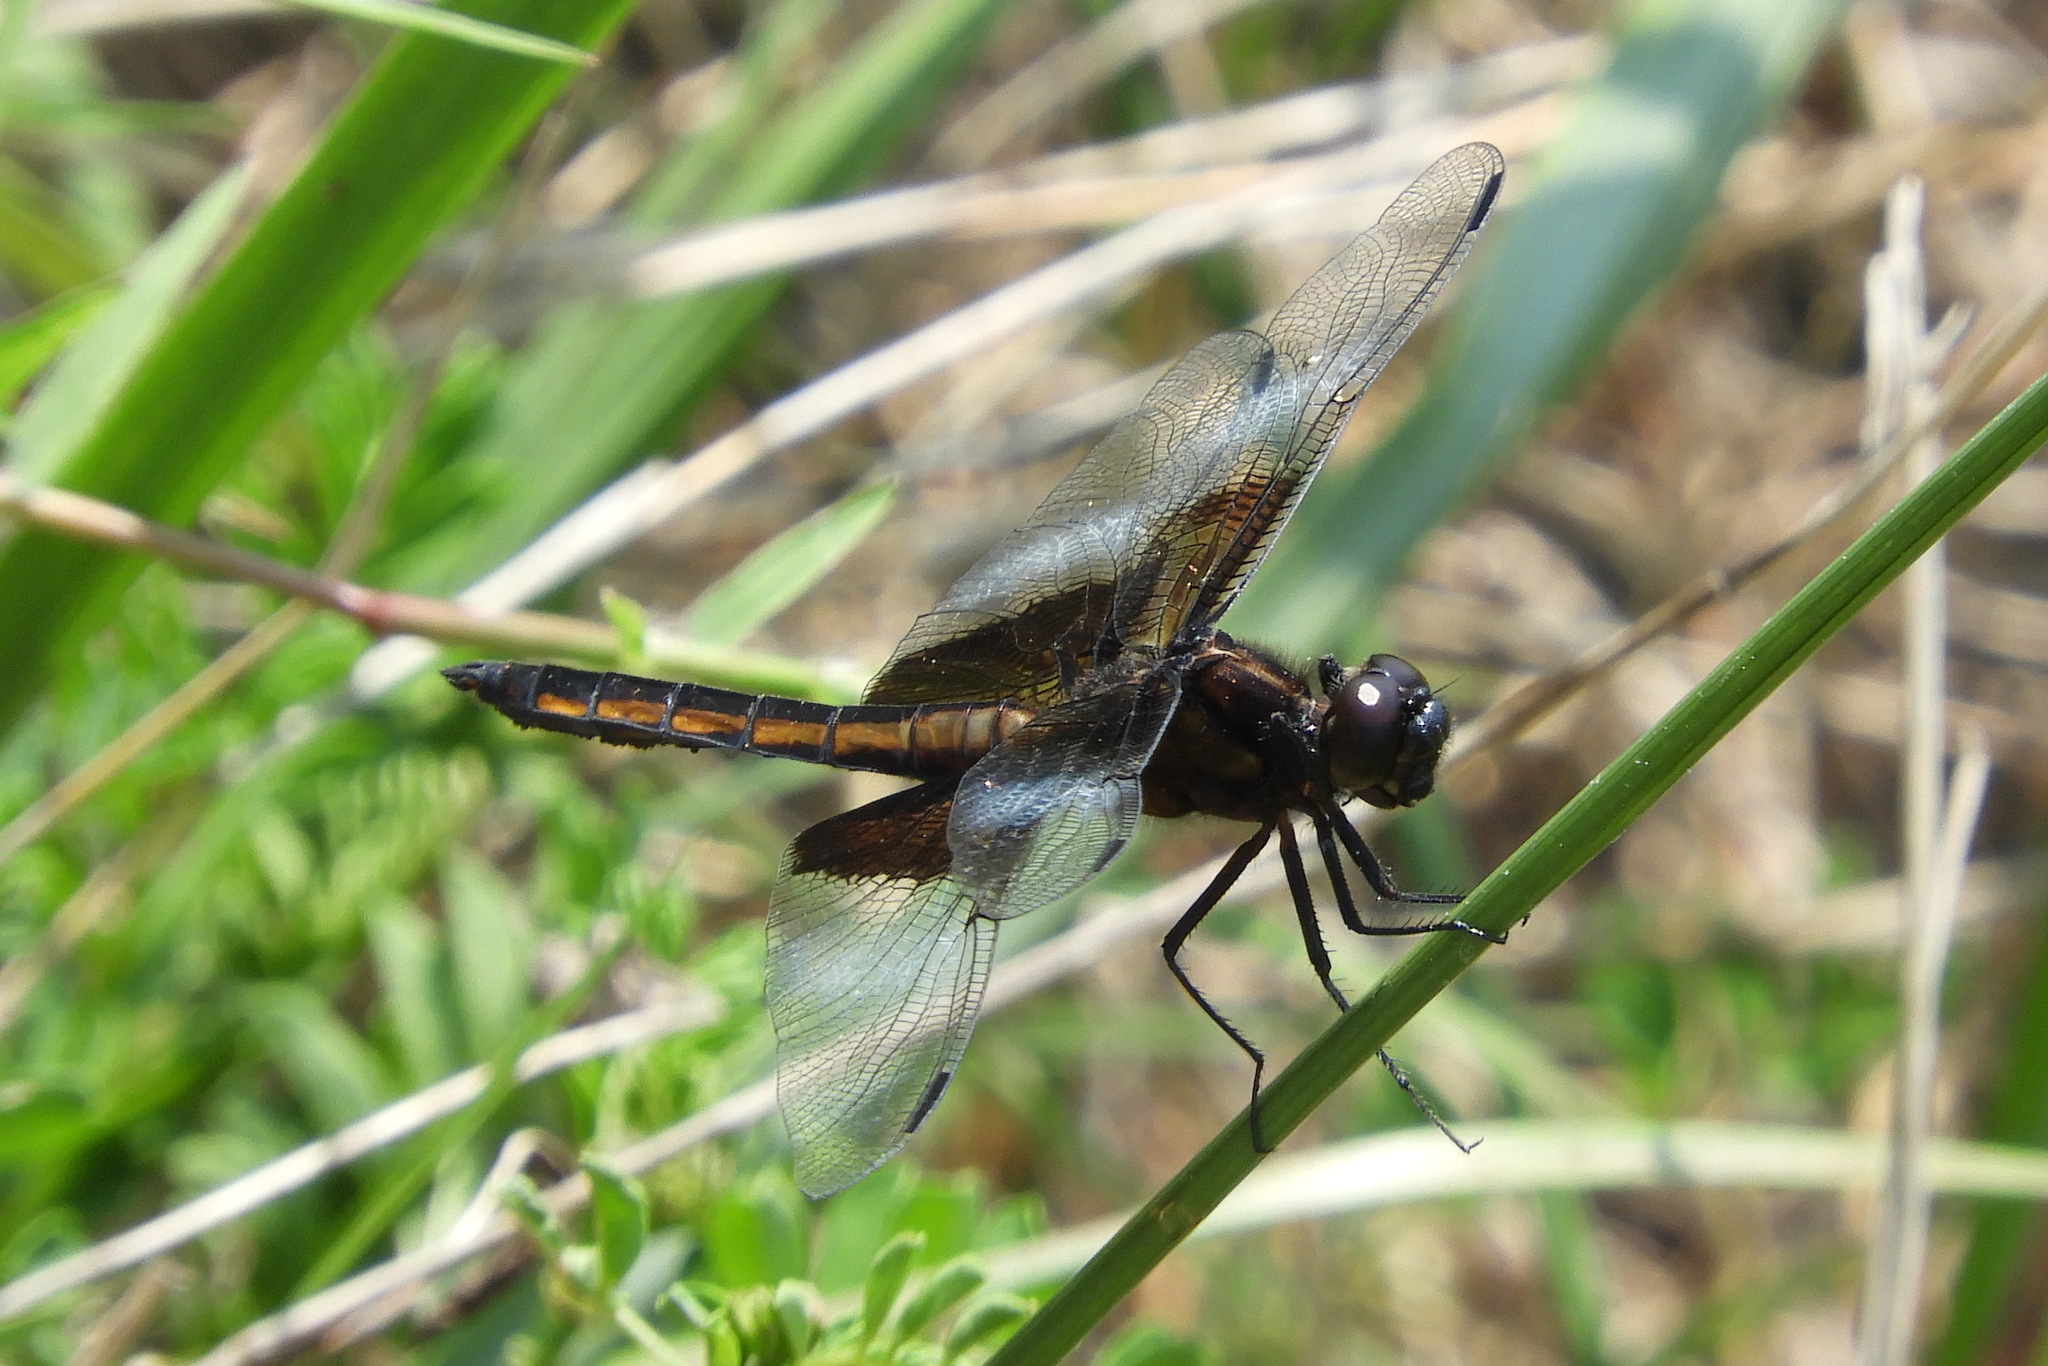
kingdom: Animalia
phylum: Arthropoda
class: Insecta
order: Odonata
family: Libellulidae
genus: Libellula
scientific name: Libellula luctuosa
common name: Widow skimmer
